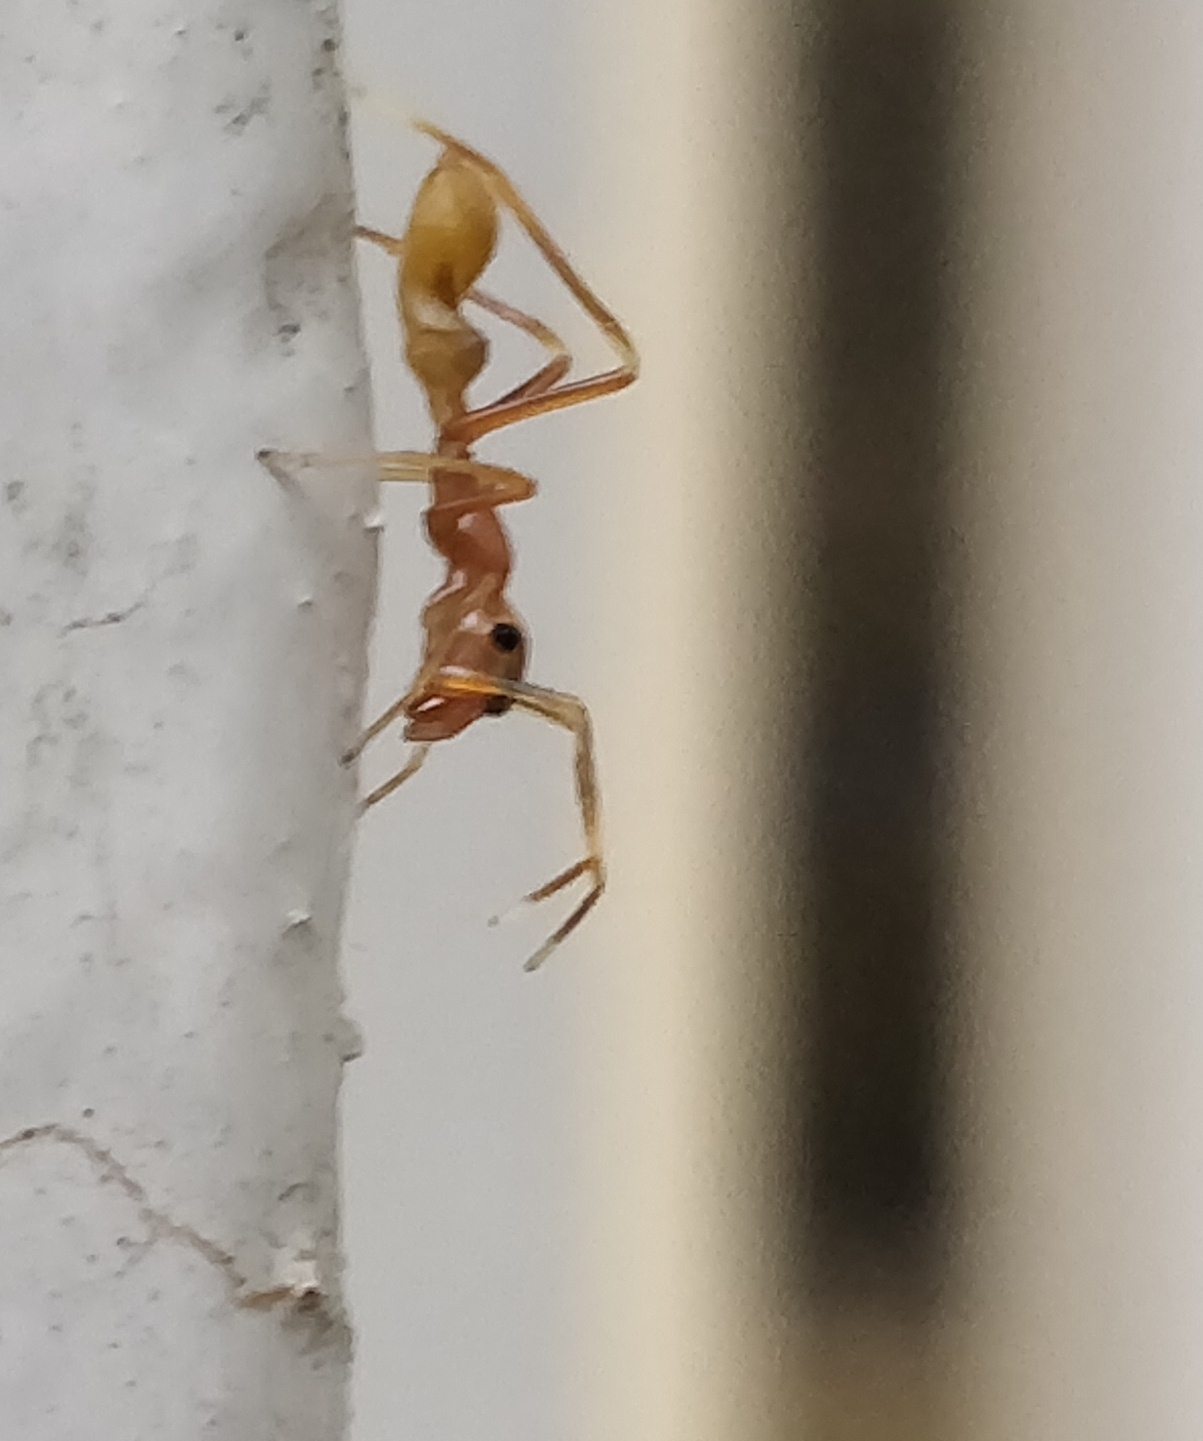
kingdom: Animalia
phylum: Arthropoda
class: Arachnida
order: Araneae
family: Salticidae
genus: Myrmaplata
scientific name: Myrmaplata plataleoides
